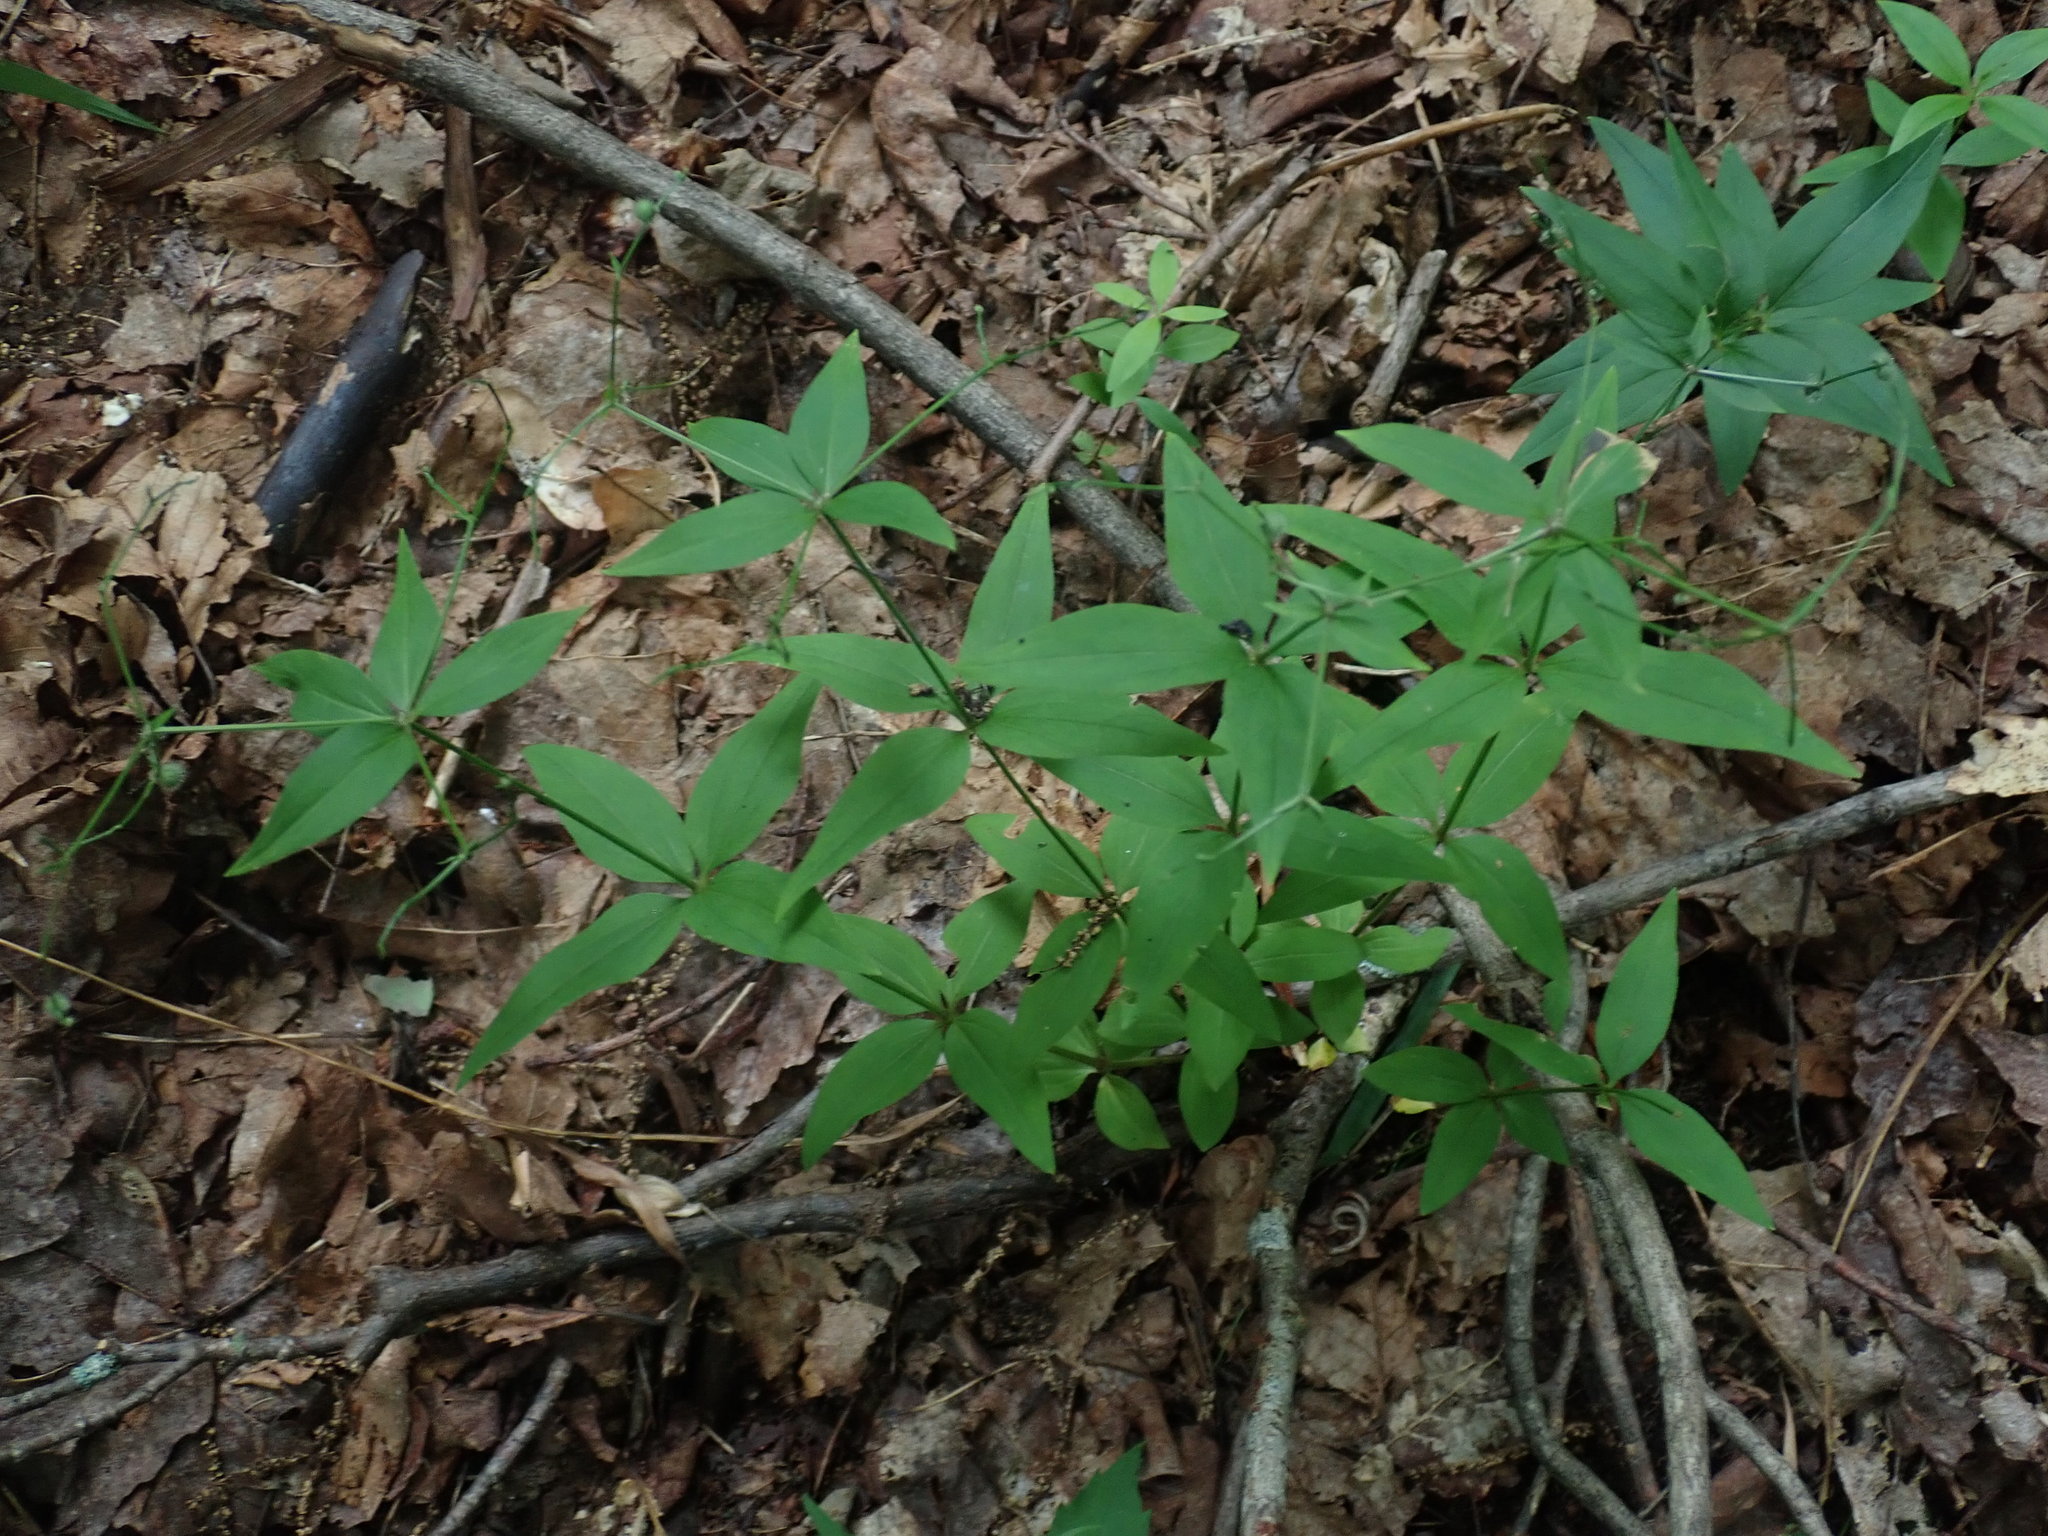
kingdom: Plantae
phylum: Tracheophyta
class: Magnoliopsida
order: Gentianales
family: Rubiaceae
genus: Galium
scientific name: Galium lanceolatum
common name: Lance-leaved wild licorice
